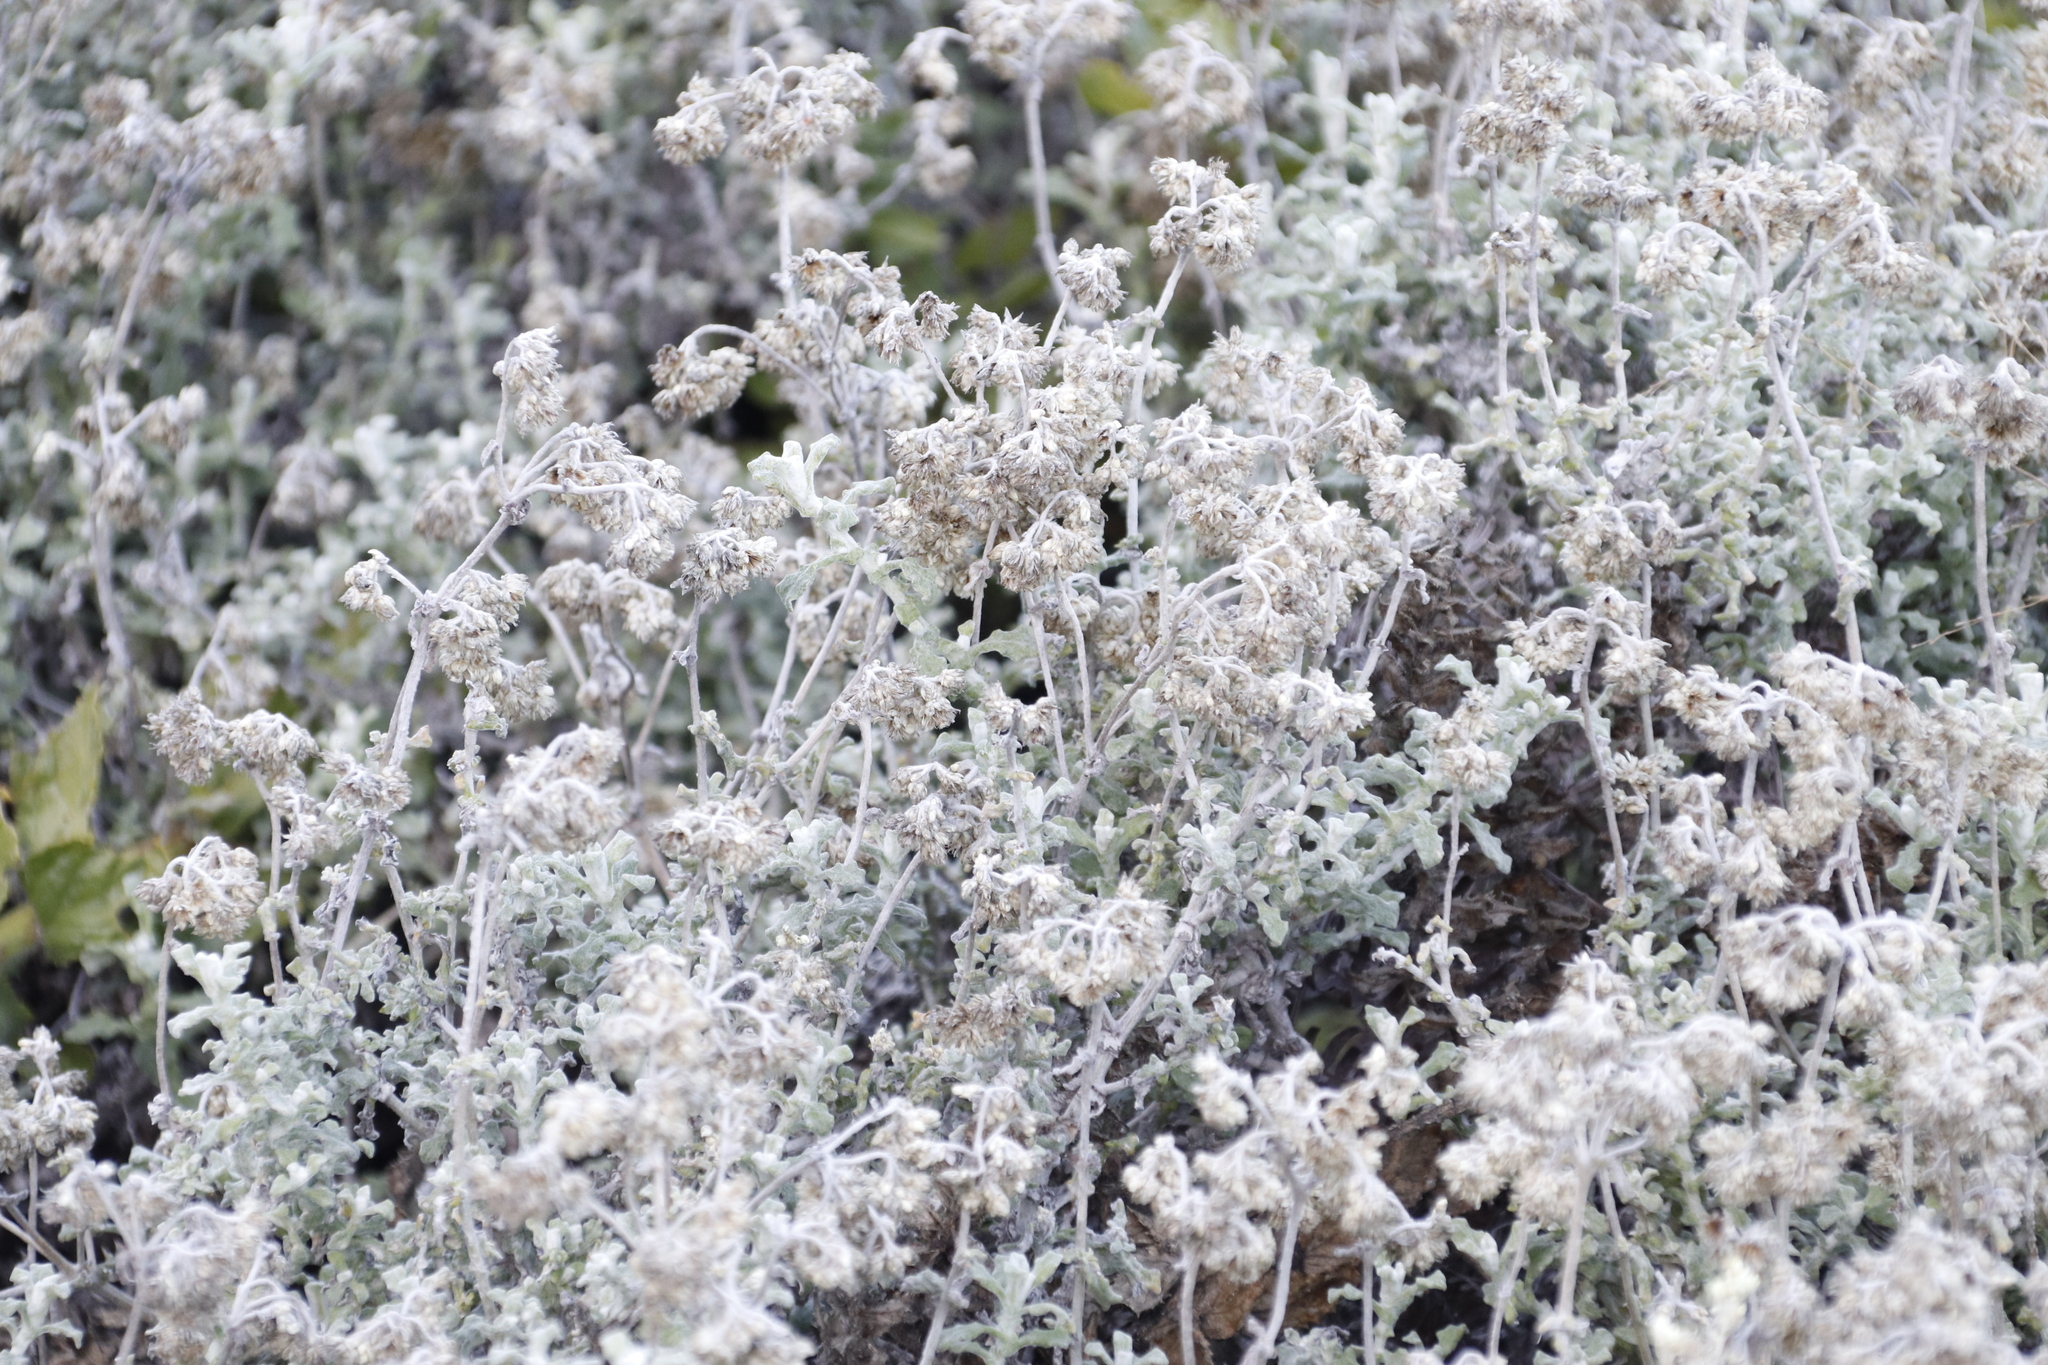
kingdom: Plantae
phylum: Tracheophyta
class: Magnoliopsida
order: Asterales
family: Asteraceae
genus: Helichrysum
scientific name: Helichrysum patulum
